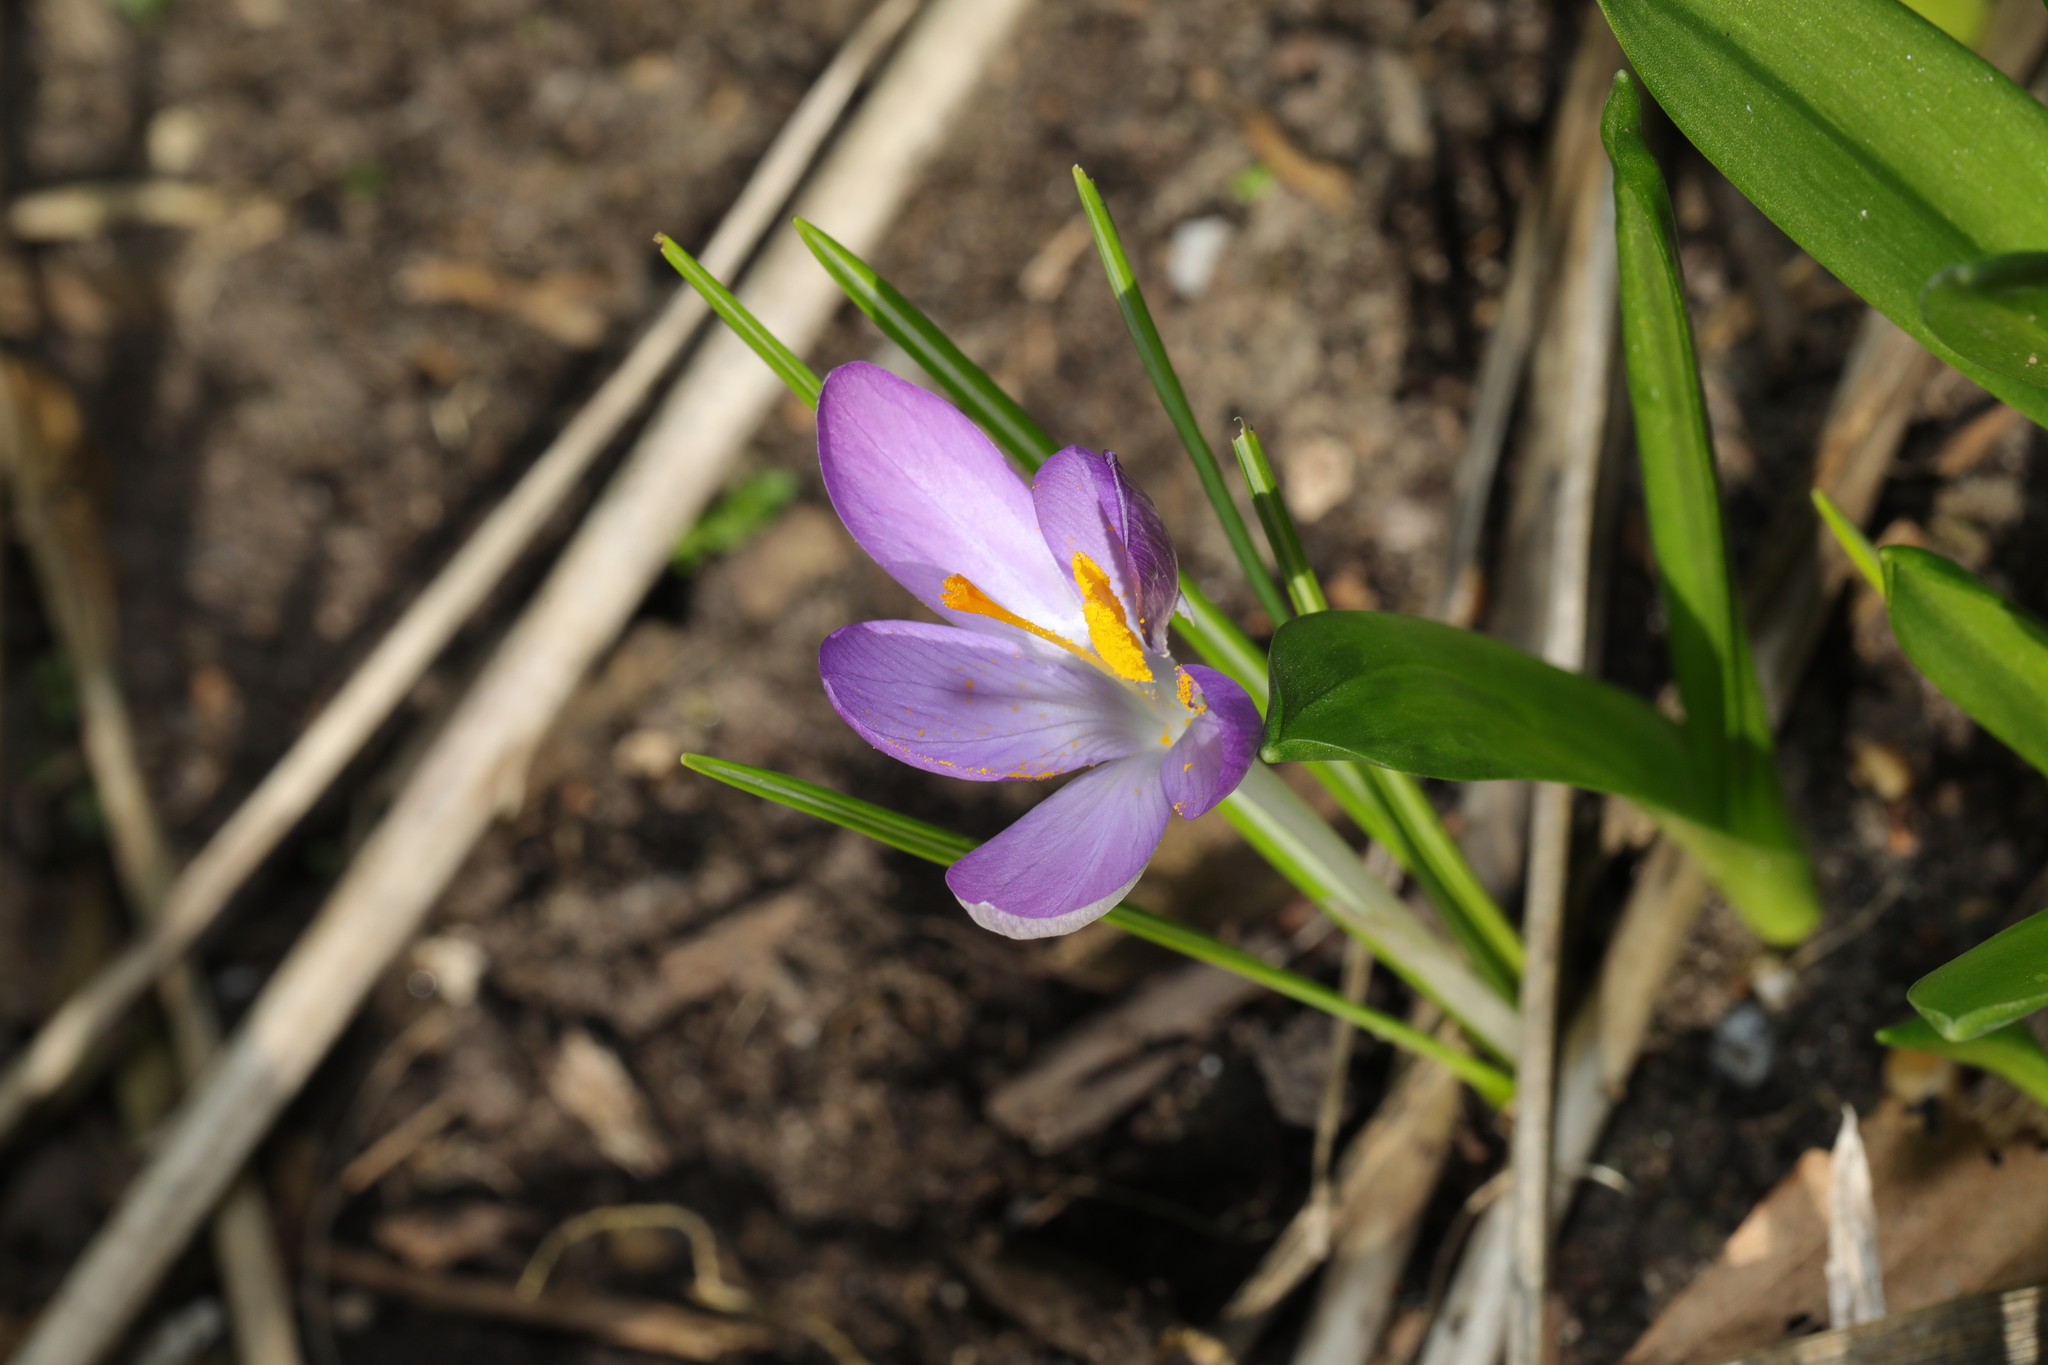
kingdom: Plantae
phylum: Tracheophyta
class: Liliopsida
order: Asparagales
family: Iridaceae
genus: Crocus
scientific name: Crocus tommasinianus
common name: Early crocus
